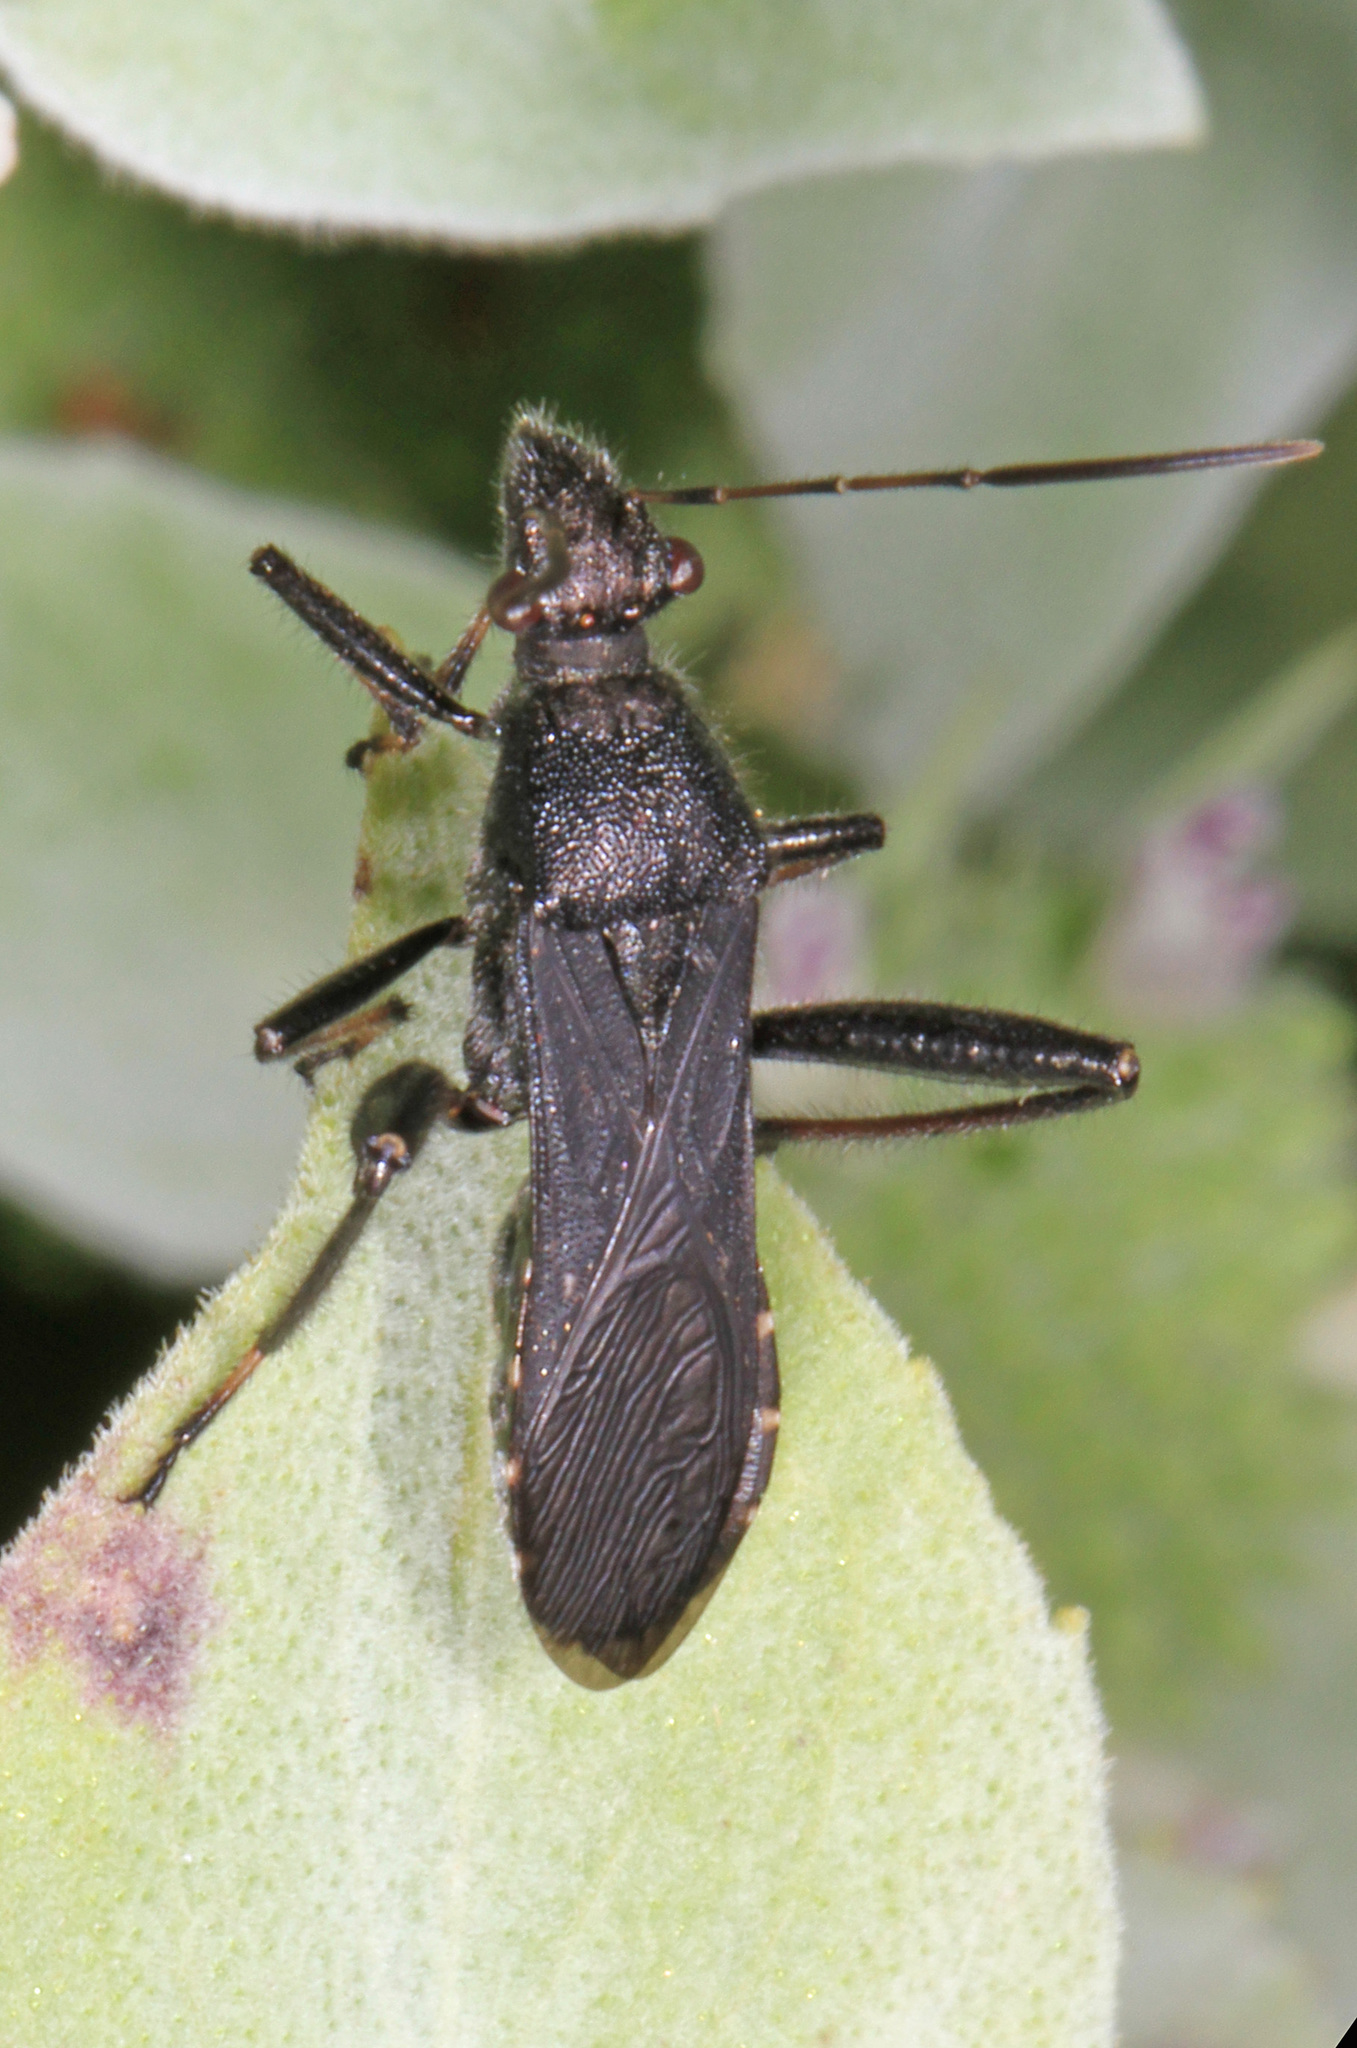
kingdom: Animalia
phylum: Arthropoda
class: Insecta
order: Hemiptera
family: Alydidae
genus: Alydus
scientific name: Alydus eurinus
